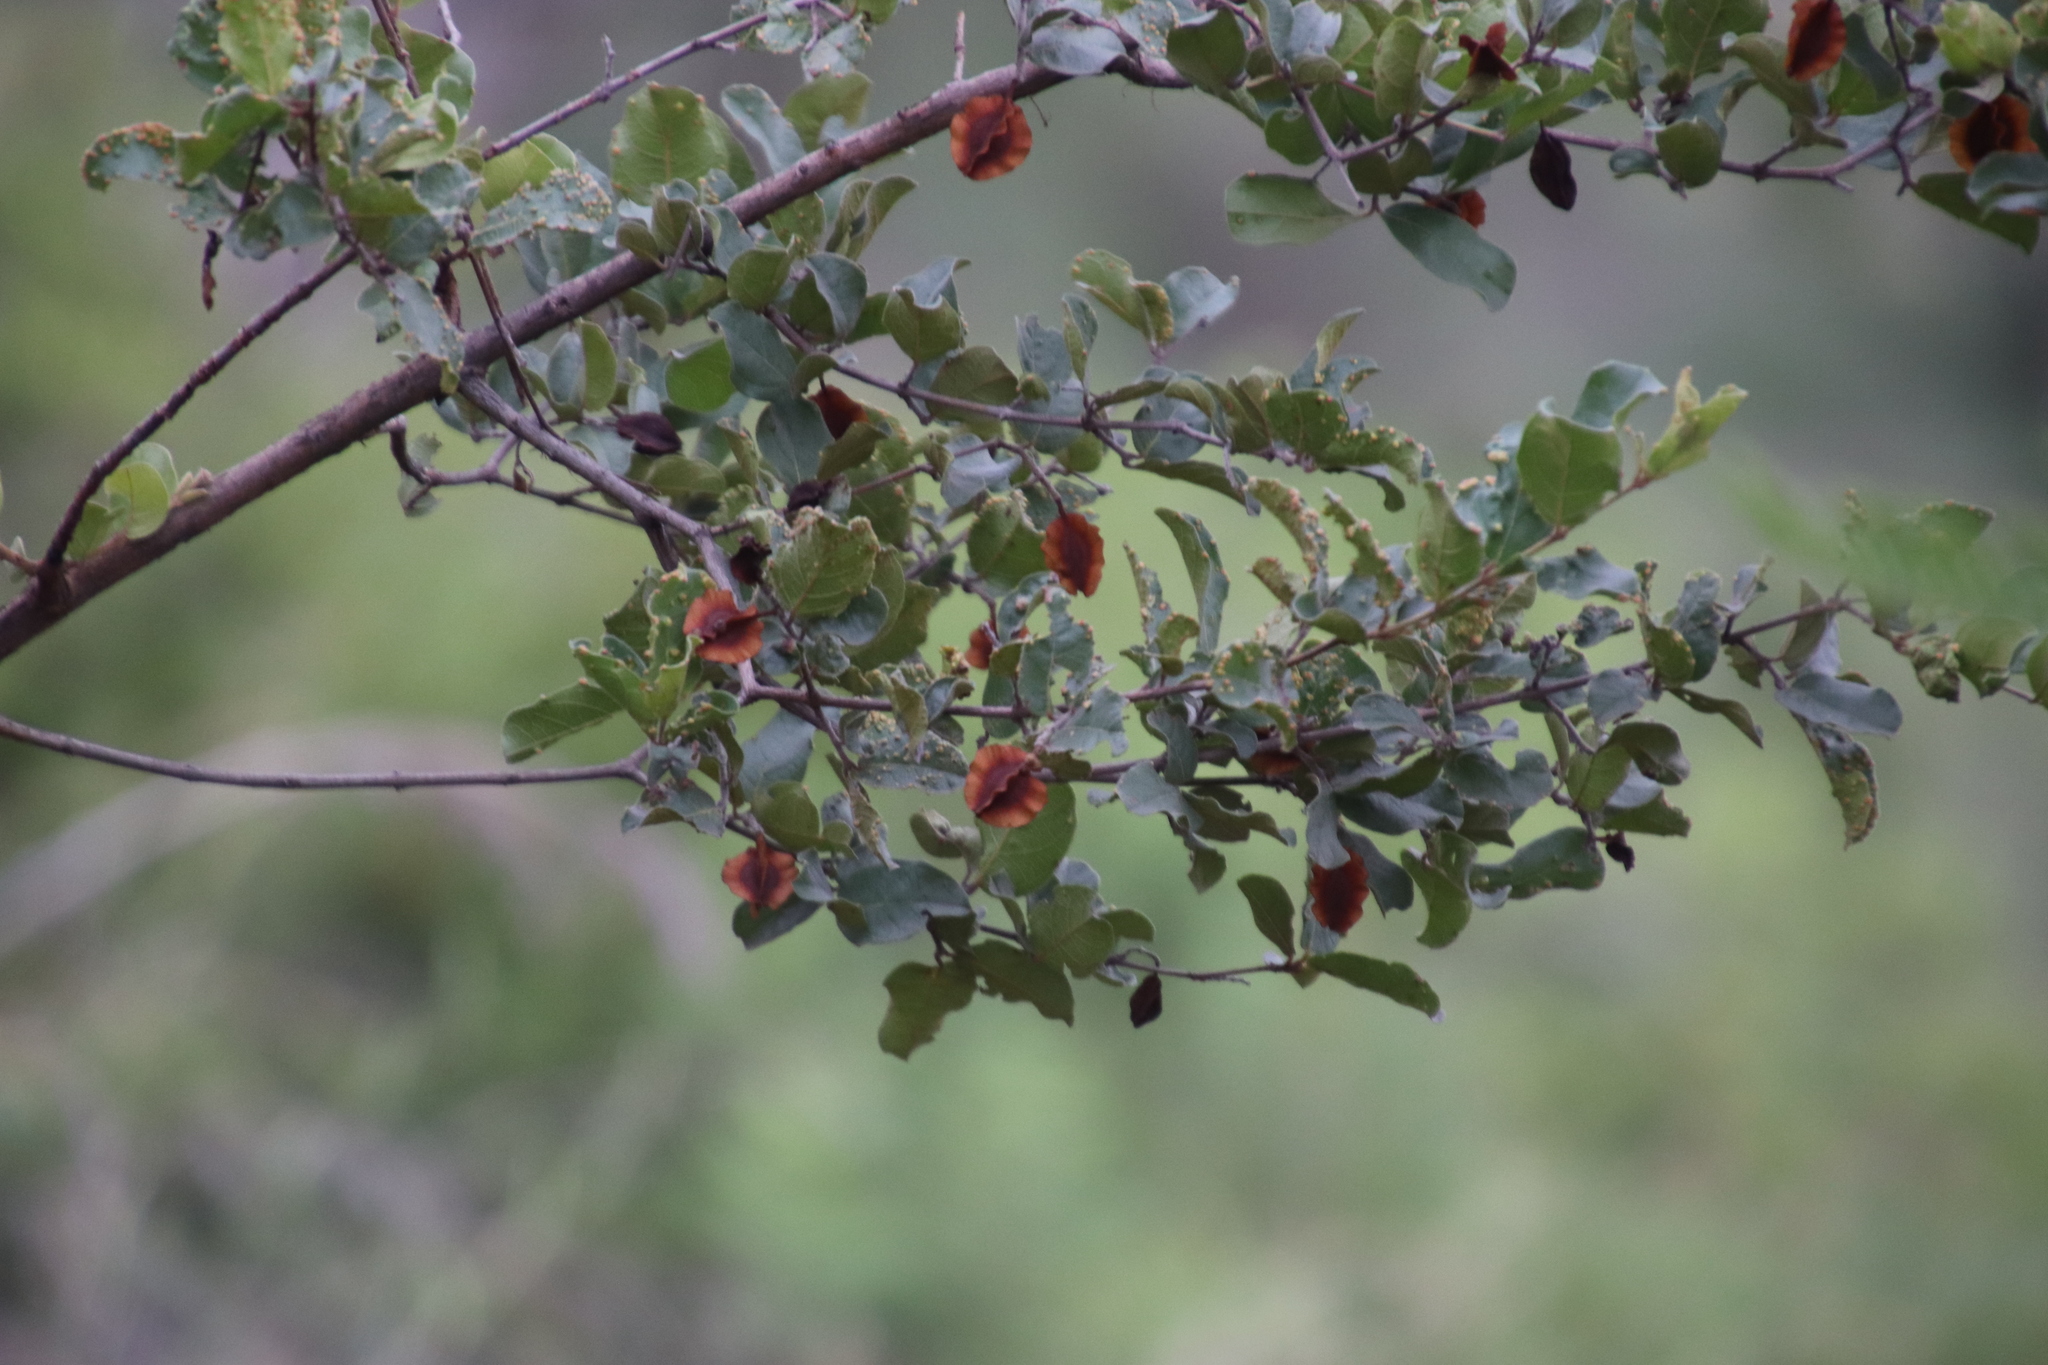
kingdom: Plantae
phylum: Tracheophyta
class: Magnoliopsida
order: Myrtales
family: Combretaceae
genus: Combretum
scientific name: Combretum hereroense
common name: Russet bushwillow
